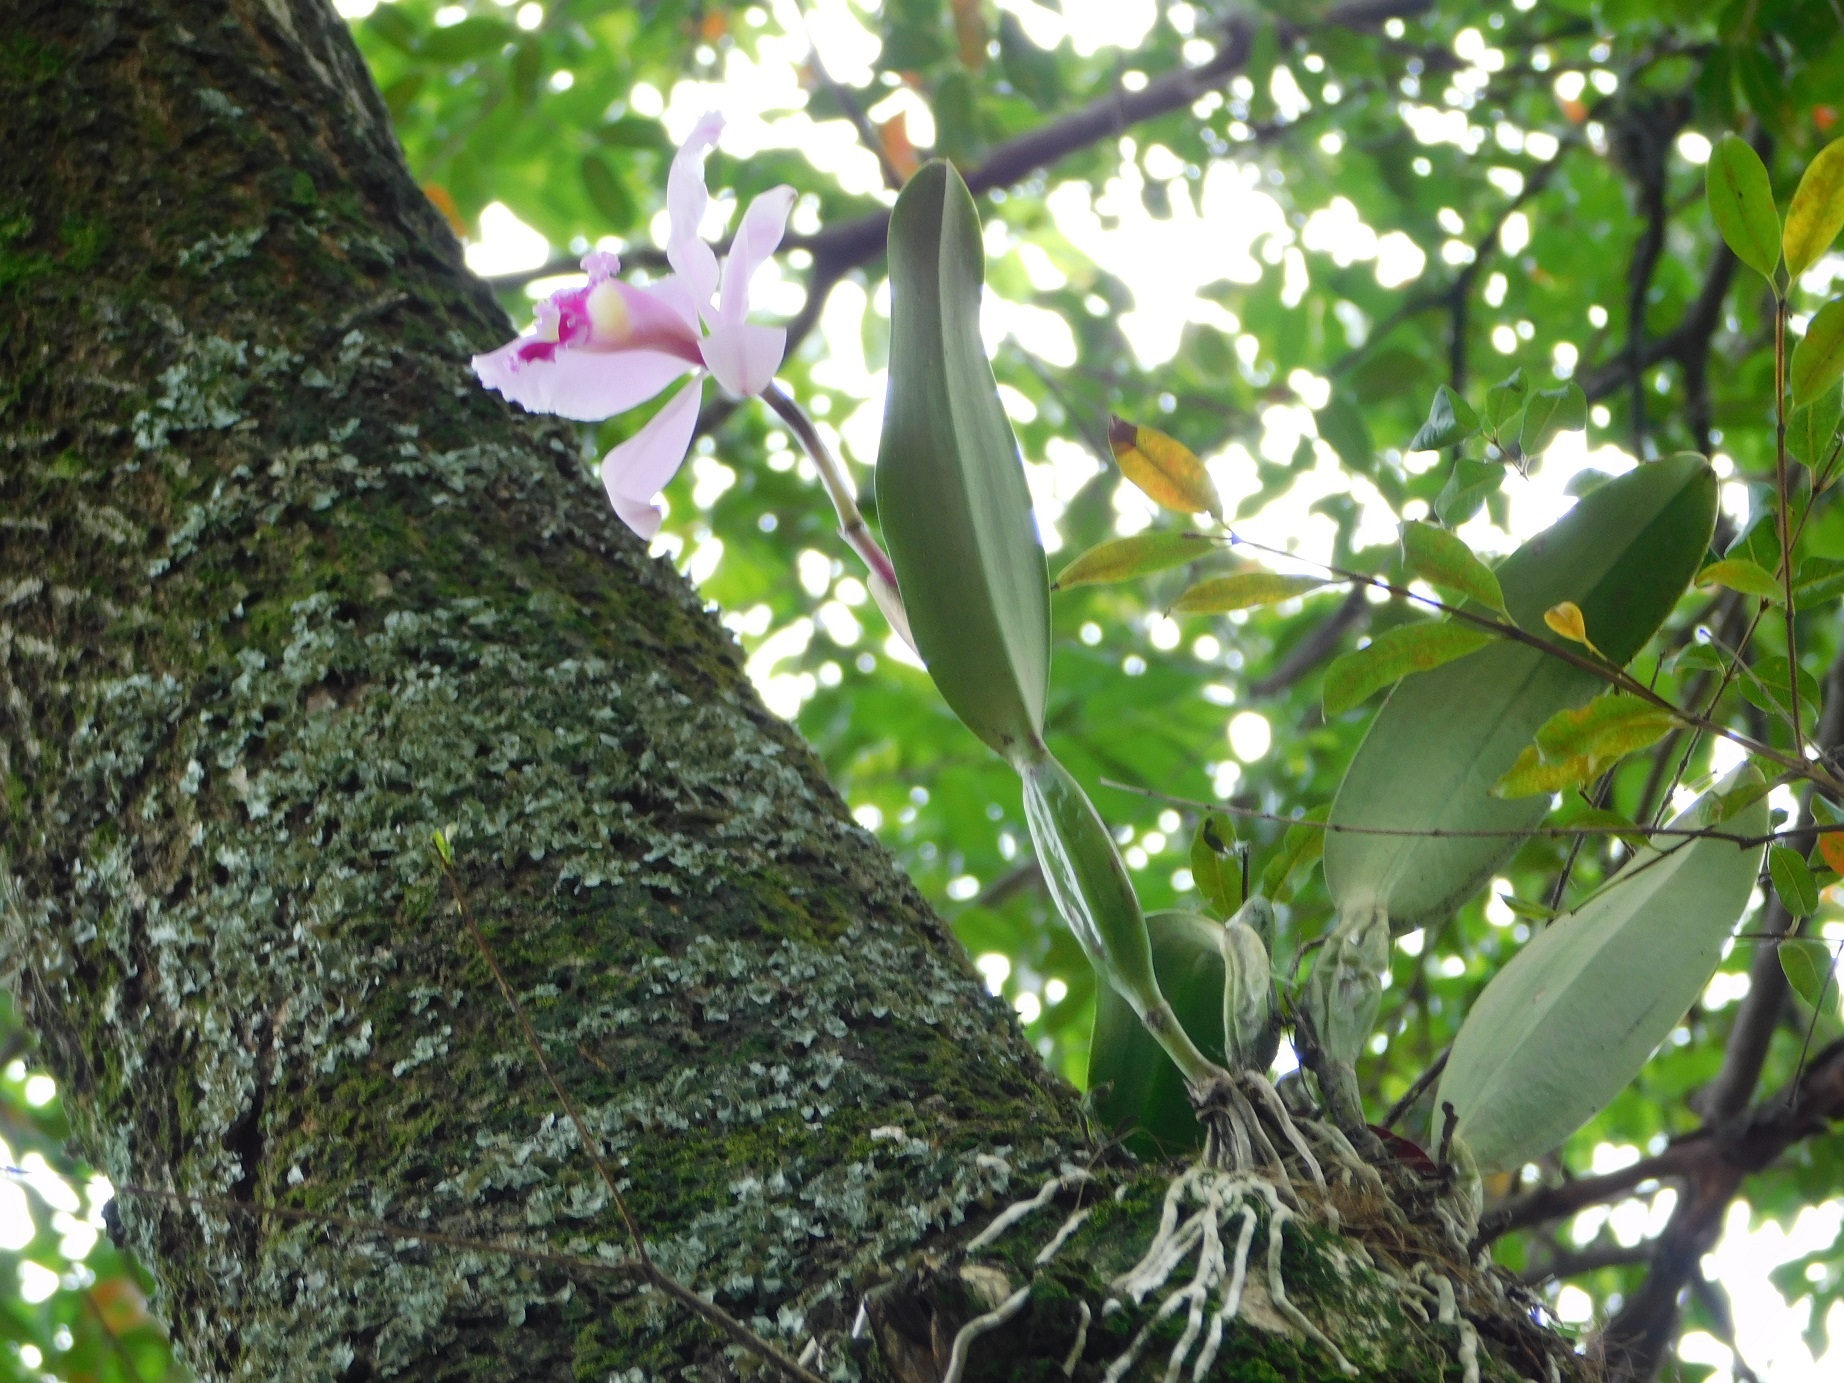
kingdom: Plantae
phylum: Tracheophyta
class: Liliopsida
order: Asparagales
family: Orchidaceae
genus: Cattleya
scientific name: Cattleya trianae
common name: Christmas orchid
